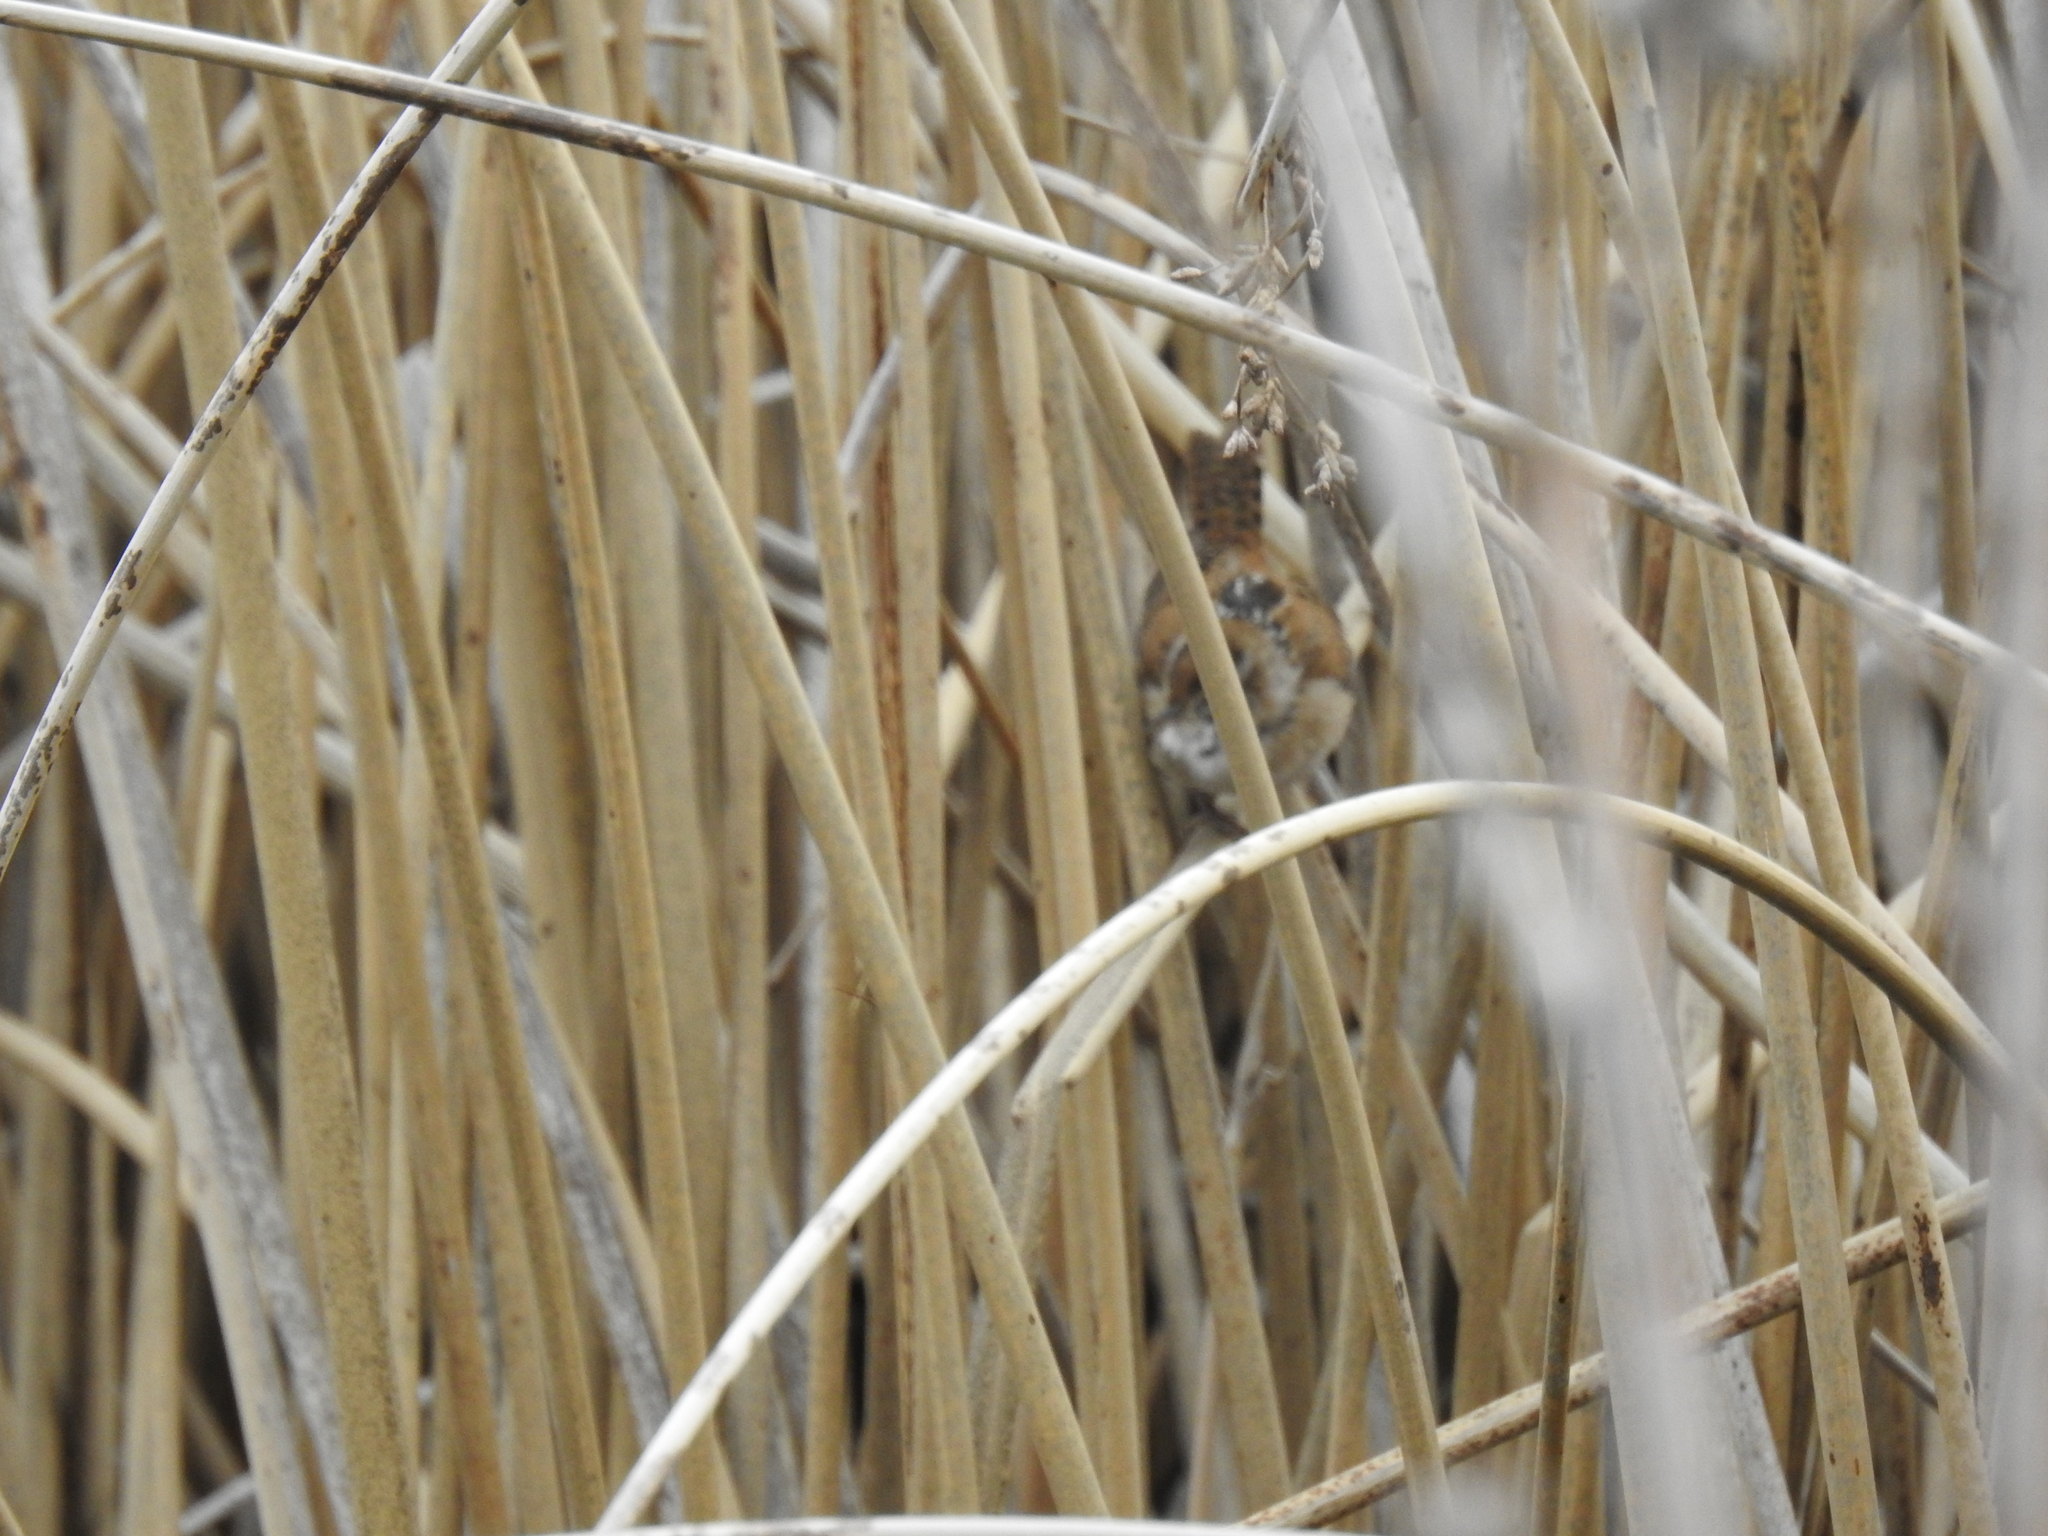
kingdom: Animalia
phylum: Chordata
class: Aves
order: Passeriformes
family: Troglodytidae
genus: Cistothorus
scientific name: Cistothorus palustris
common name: Marsh wren
